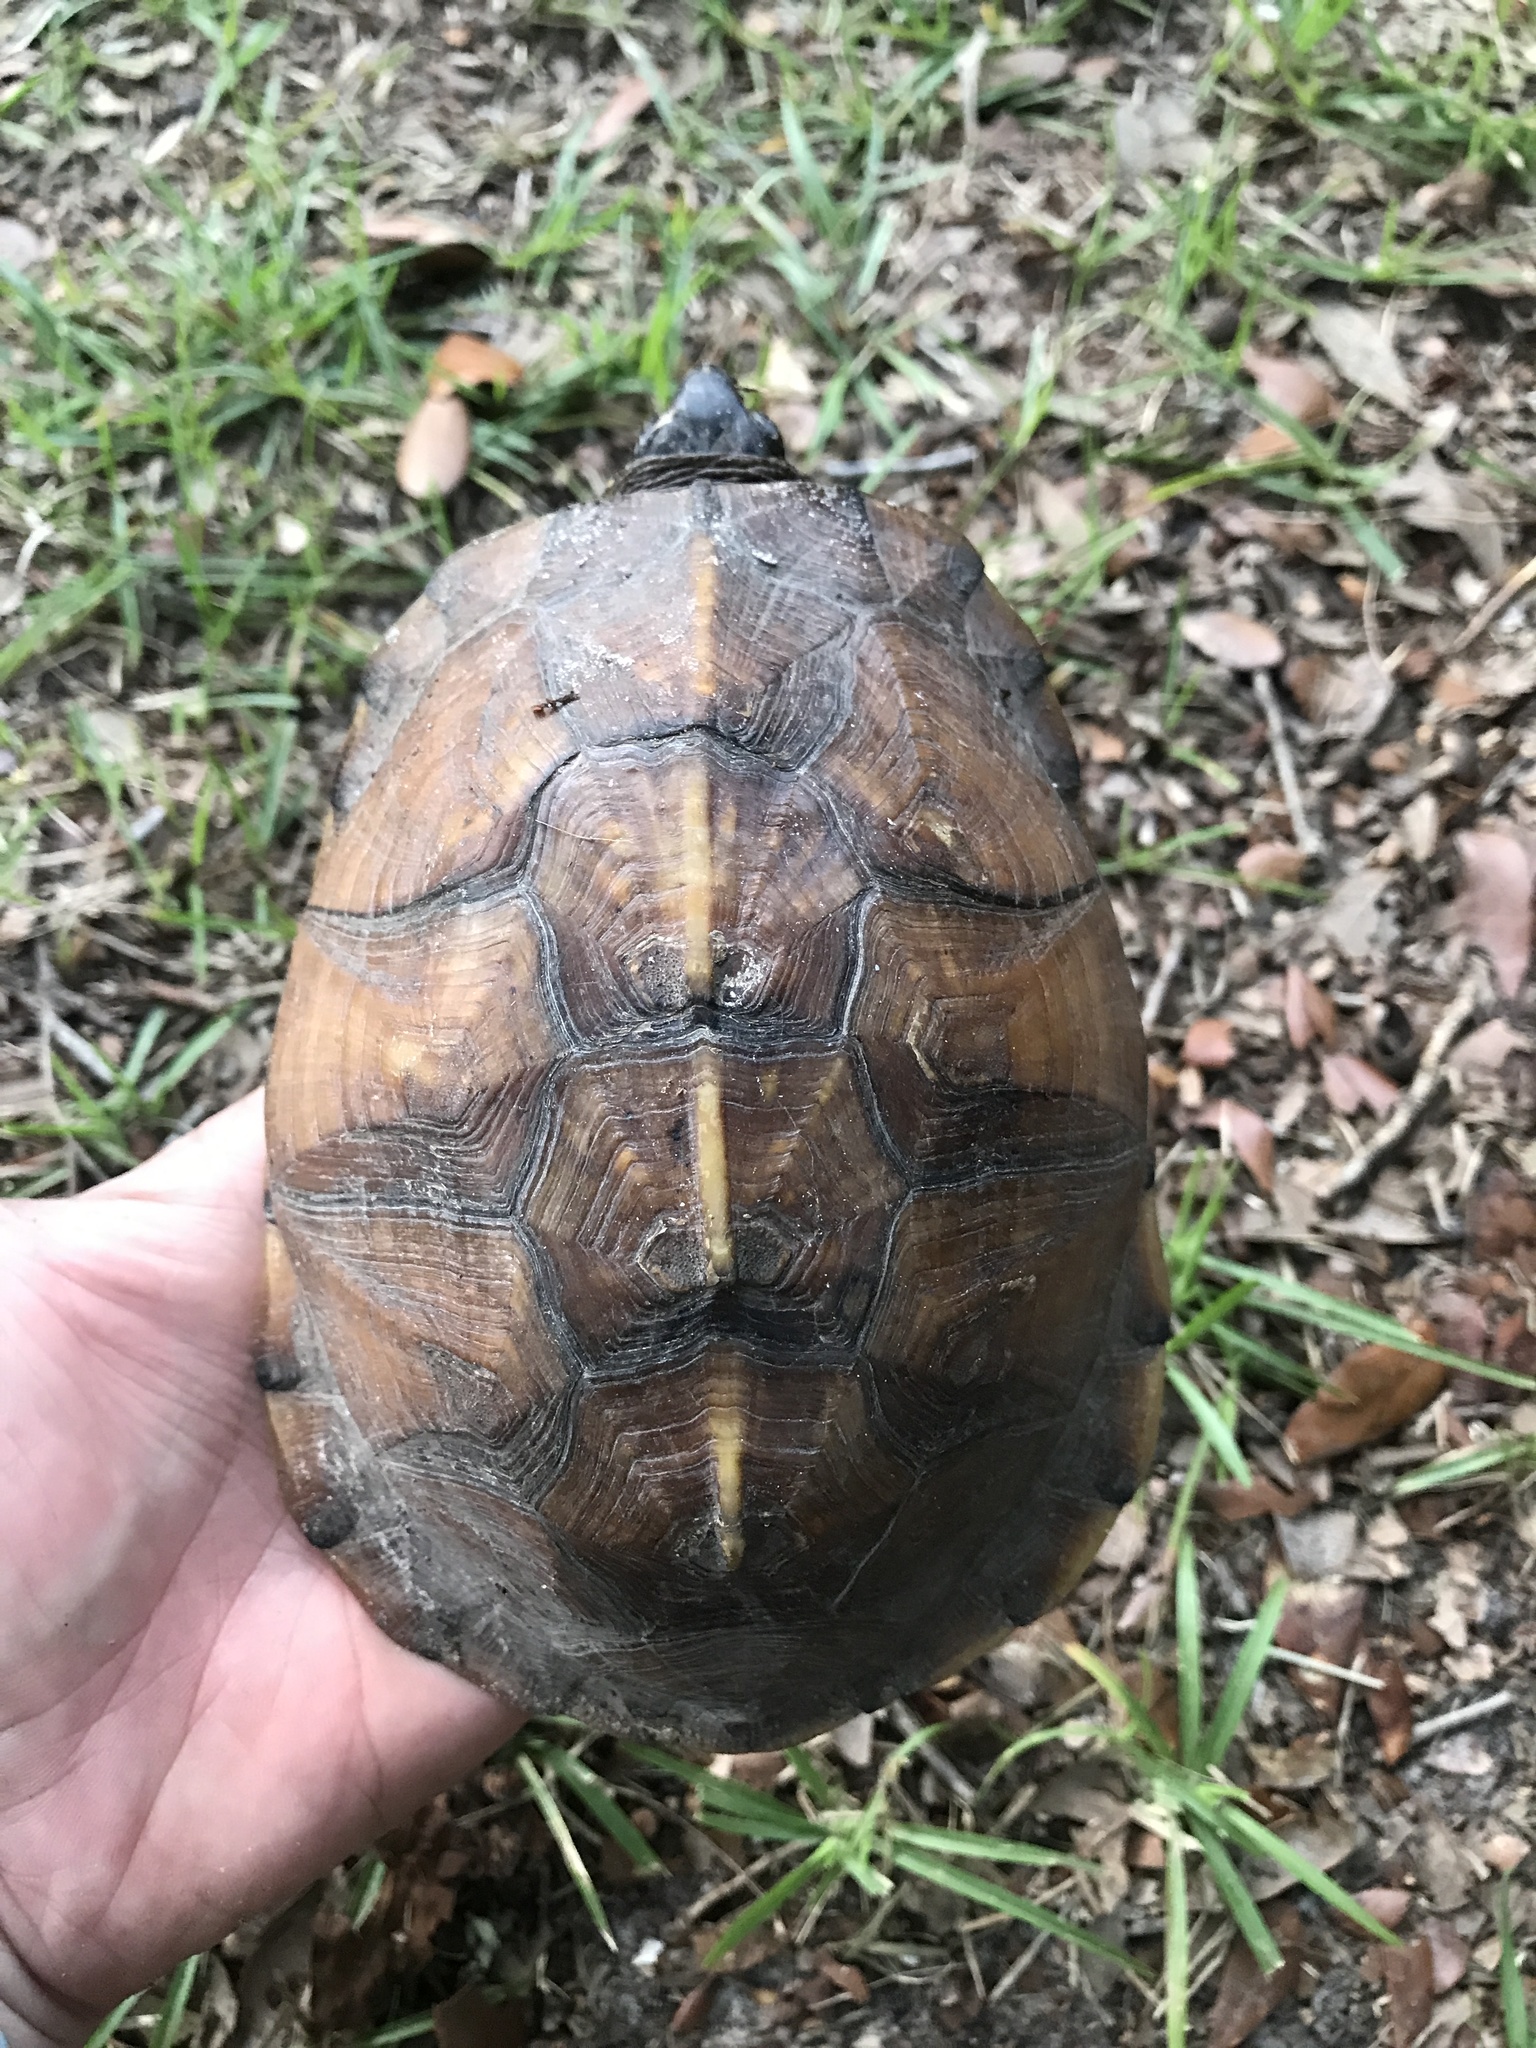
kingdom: Animalia
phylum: Chordata
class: Testudines
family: Emydidae
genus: Terrapene
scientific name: Terrapene carolina
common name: Common box turtle
